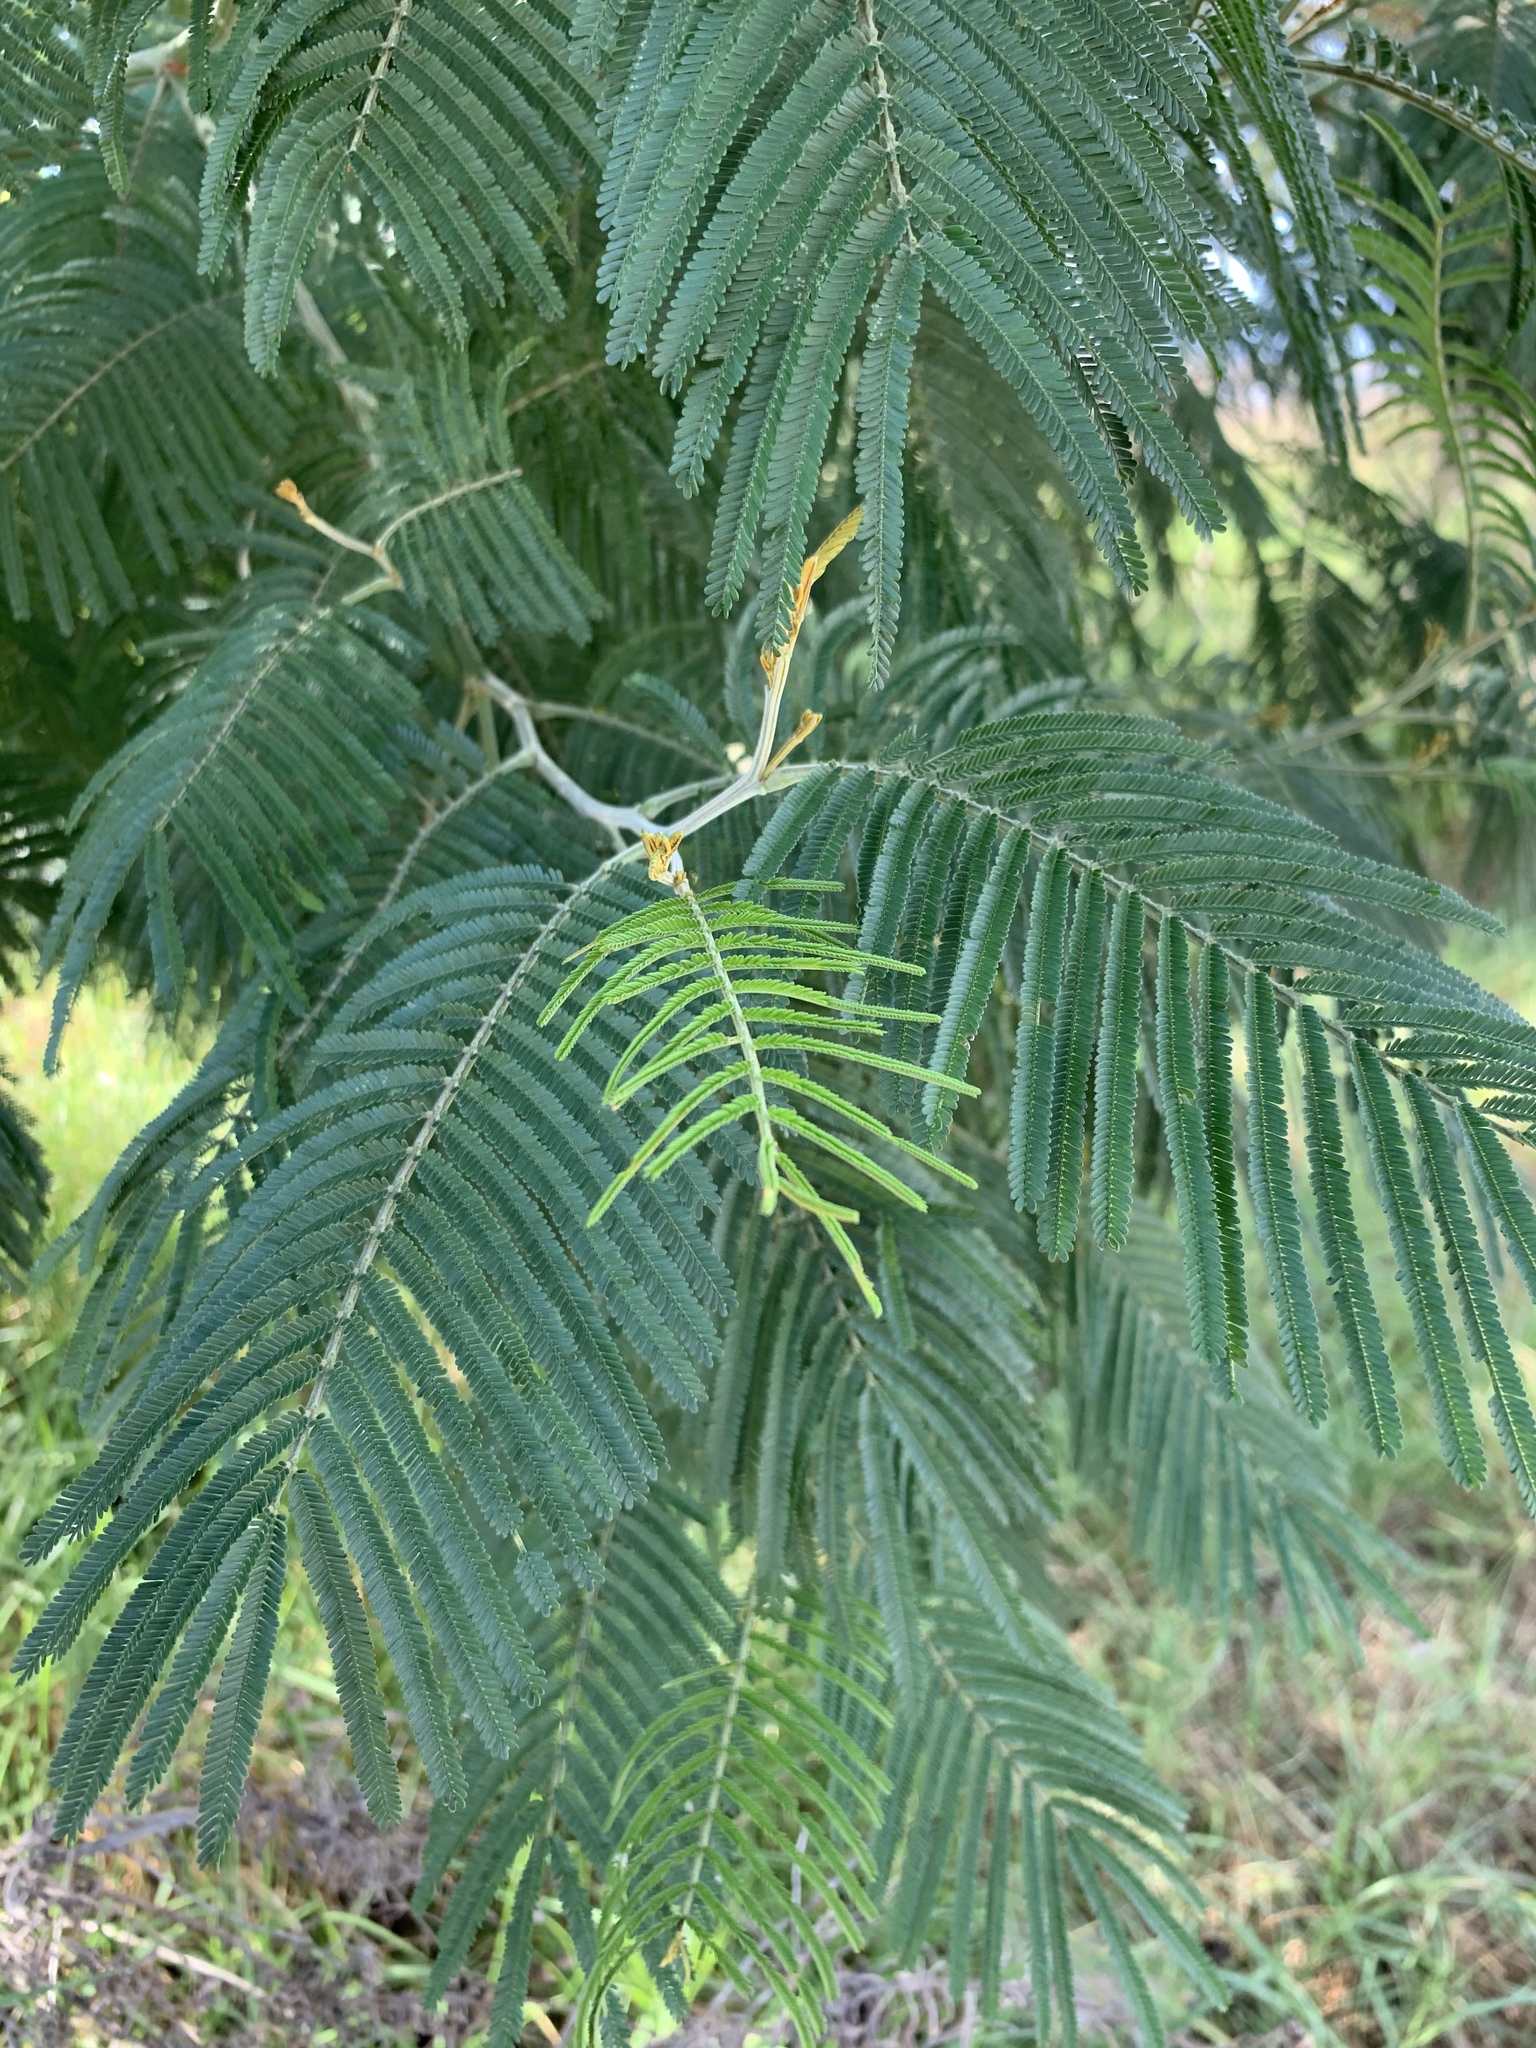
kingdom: Plantae
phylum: Tracheophyta
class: Magnoliopsida
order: Fabales
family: Fabaceae
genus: Acacia
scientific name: Acacia mearnsii
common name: Black wattle
